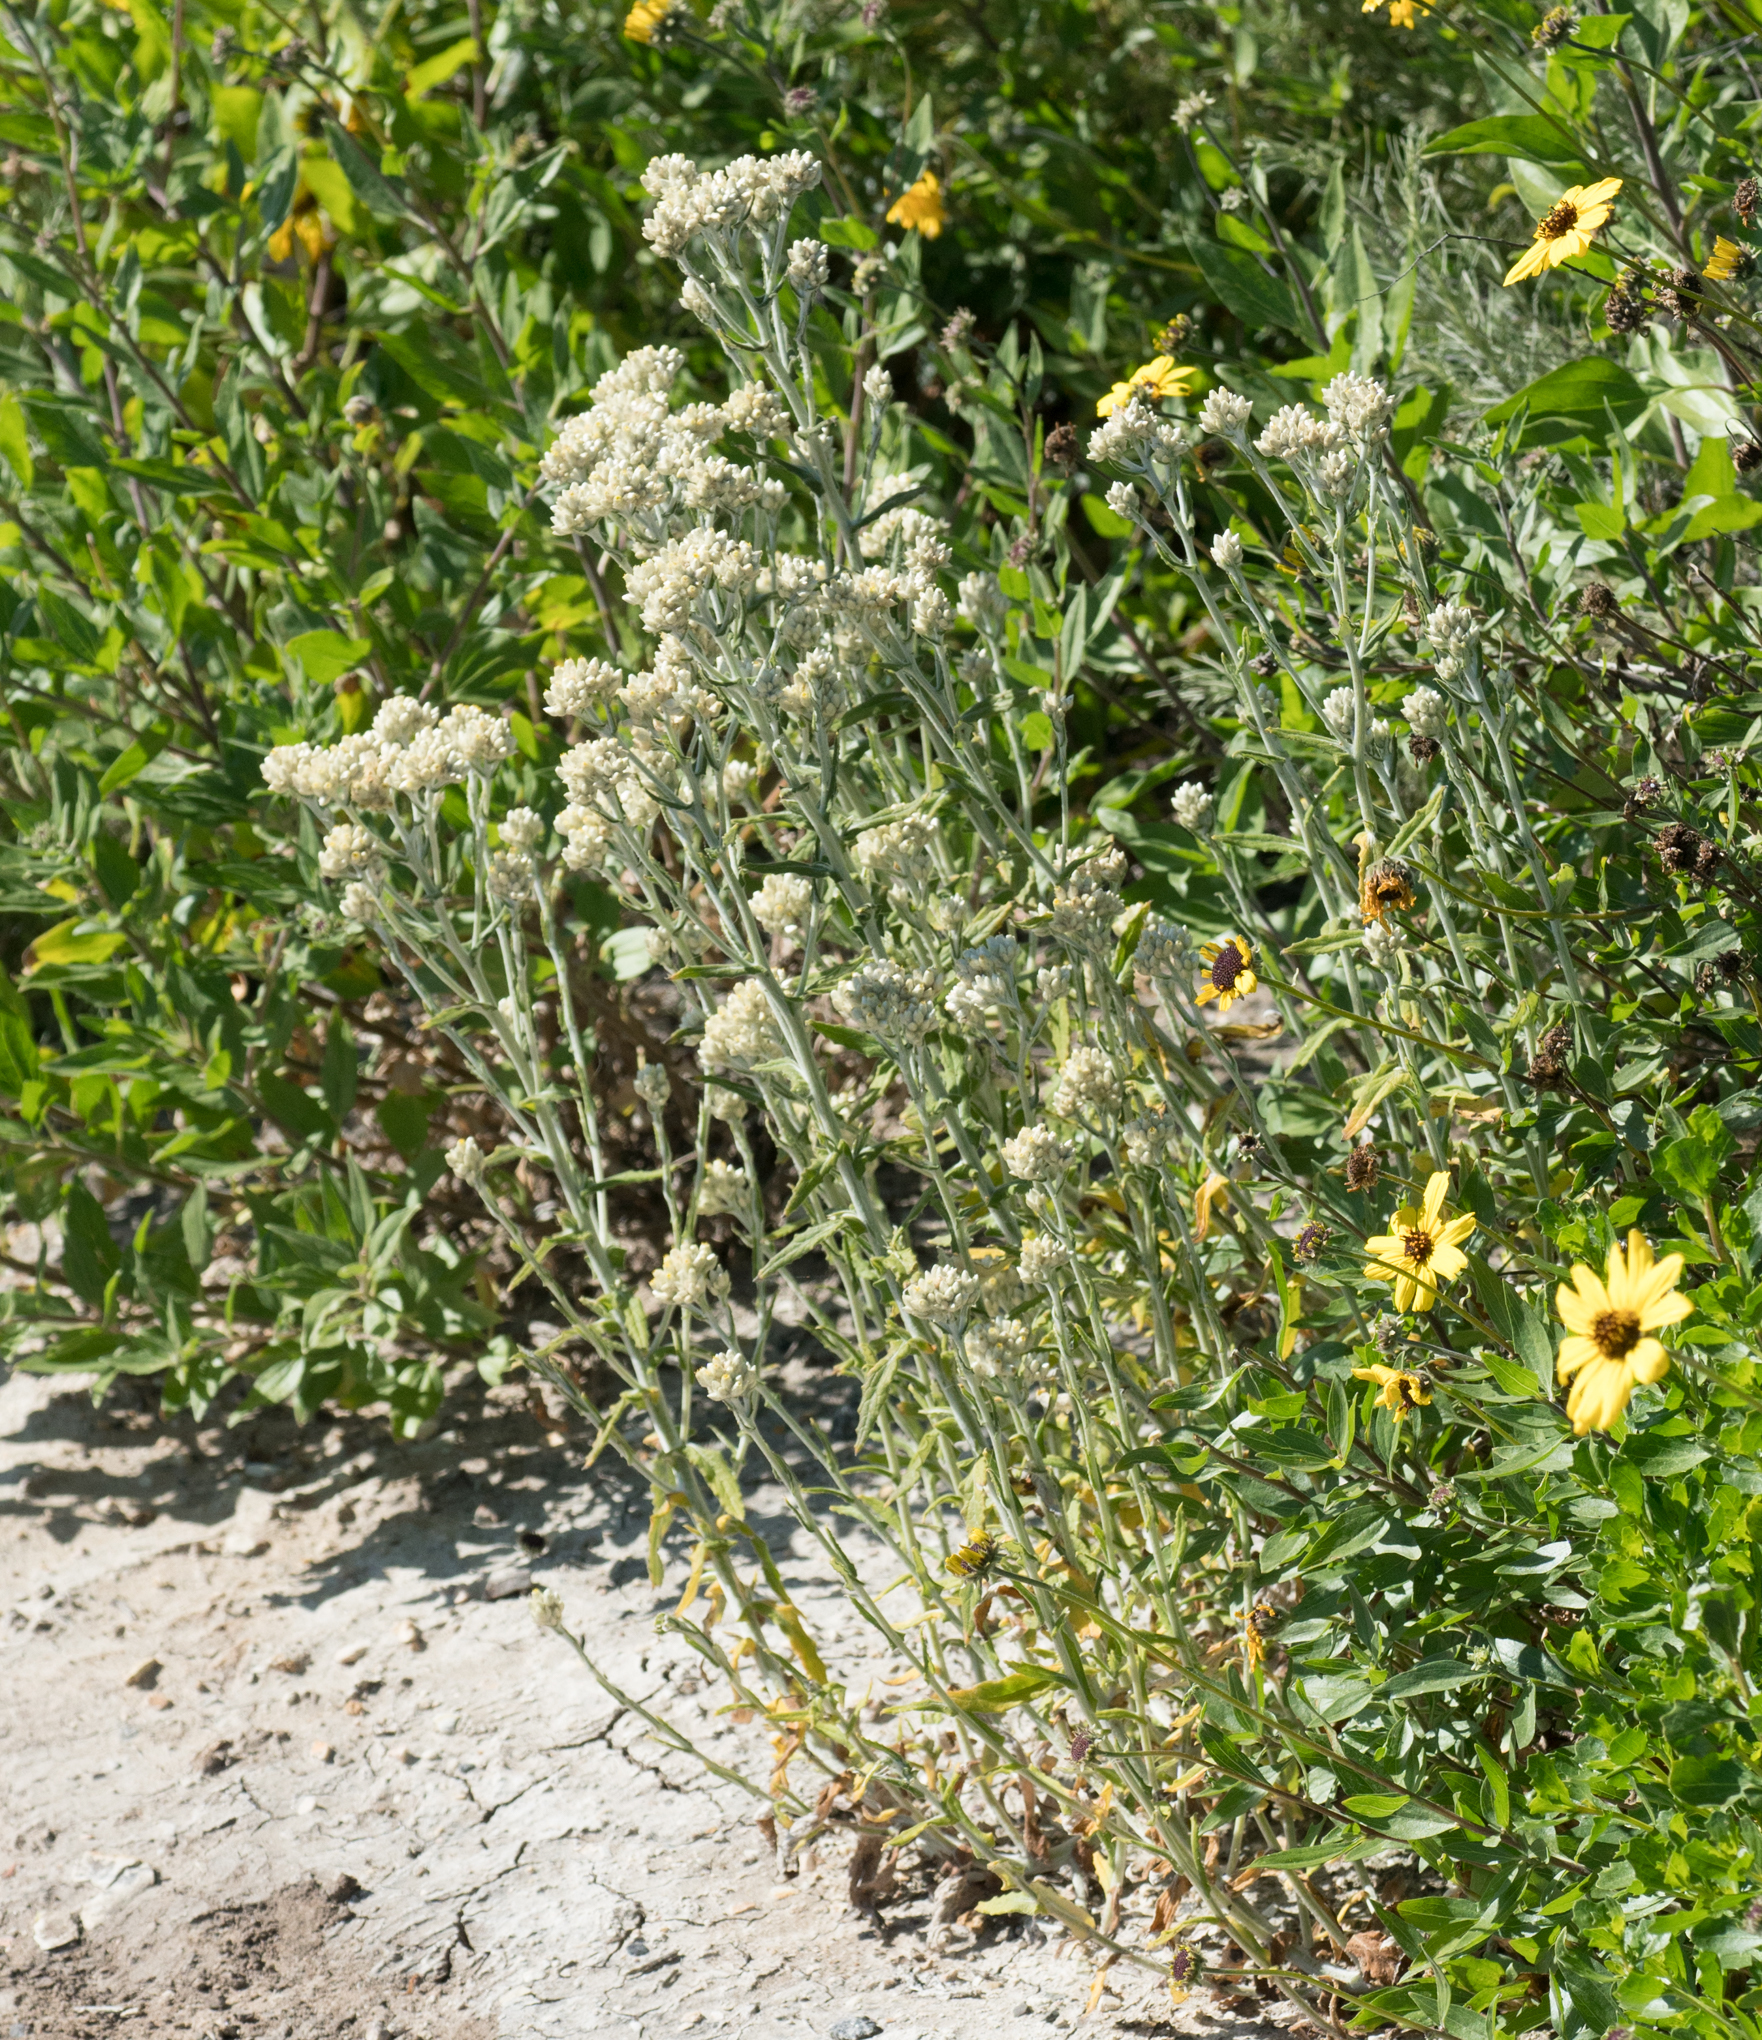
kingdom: Plantae
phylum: Tracheophyta
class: Magnoliopsida
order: Asterales
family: Asteraceae
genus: Pseudognaphalium
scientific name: Pseudognaphalium biolettii
